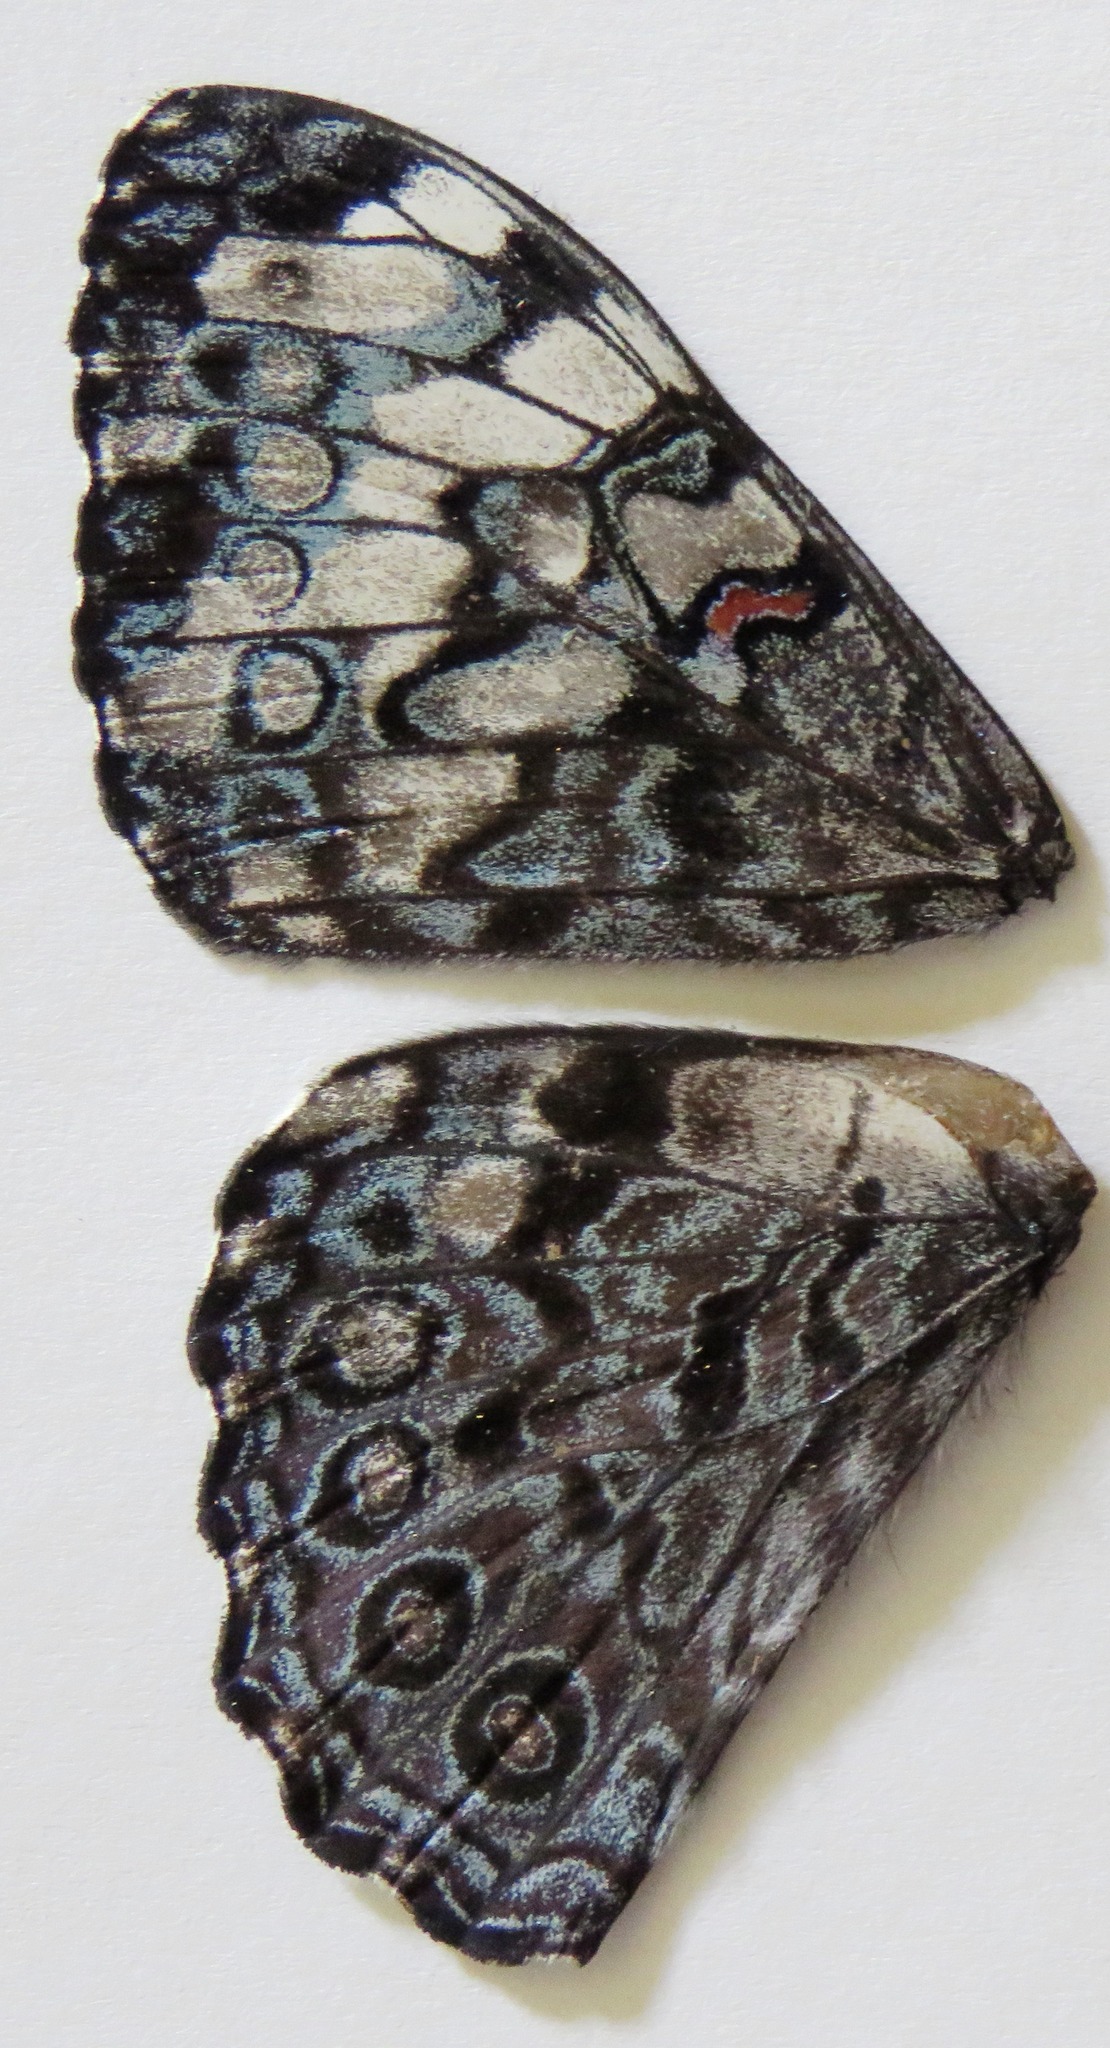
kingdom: Animalia
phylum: Arthropoda
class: Insecta
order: Lepidoptera
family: Nymphalidae
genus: Hamadryas
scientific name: Hamadryas guatemalena
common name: Guatemalan cracker
